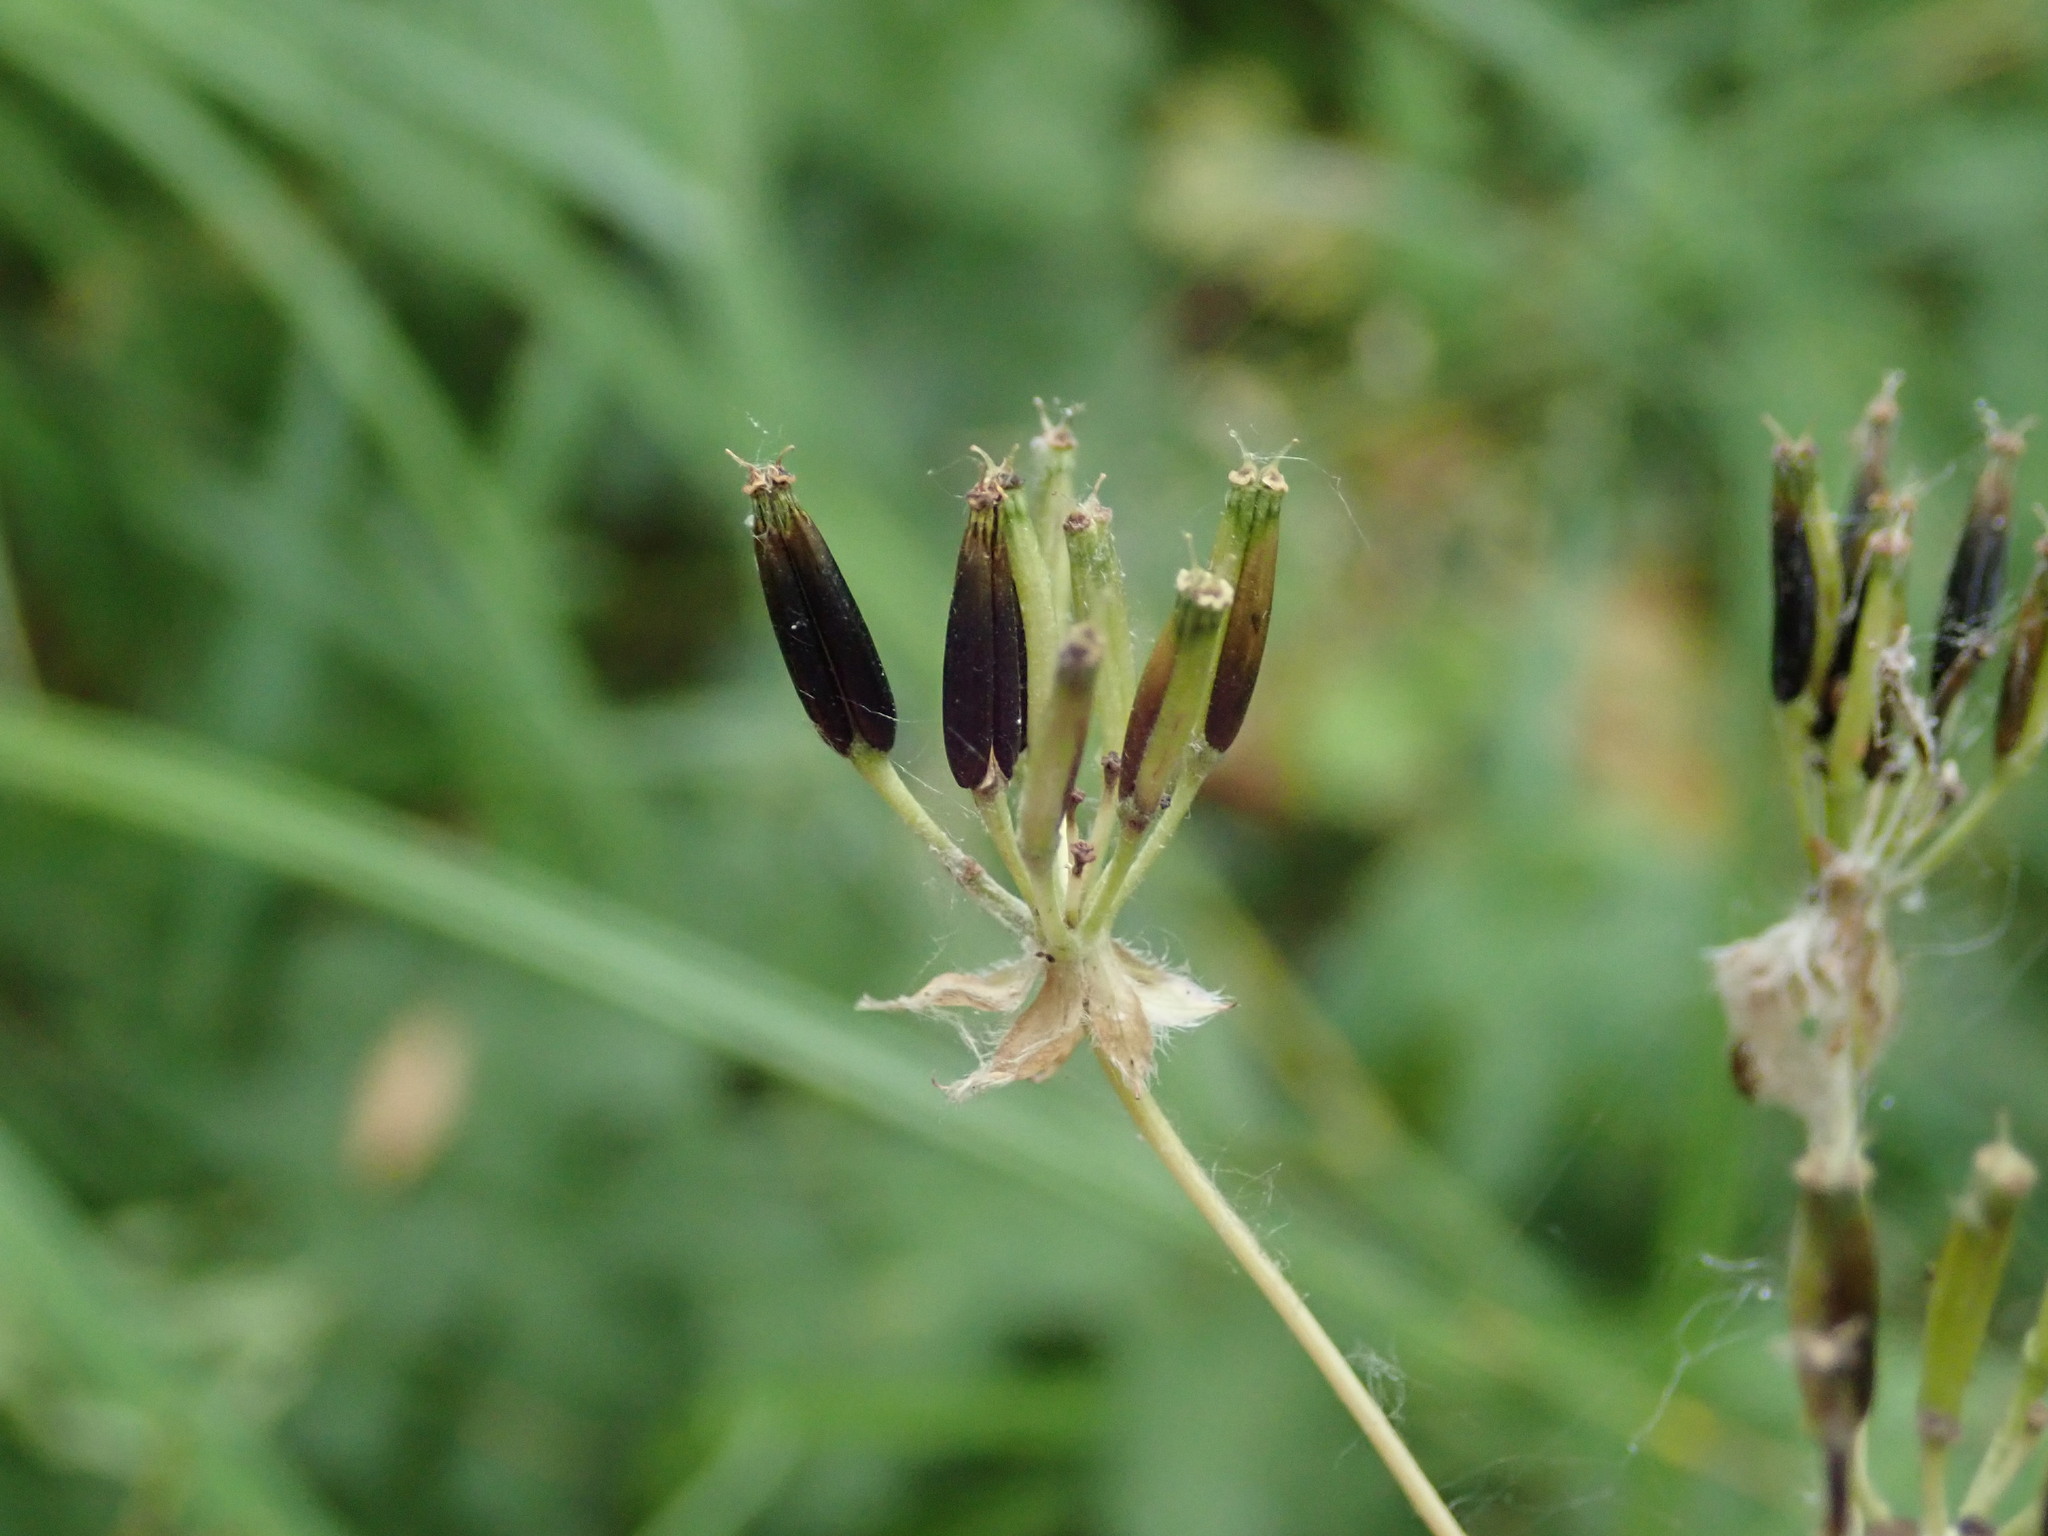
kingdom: Plantae
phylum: Tracheophyta
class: Magnoliopsida
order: Apiales
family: Apiaceae
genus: Anthriscus
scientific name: Anthriscus sylvestris
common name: Cow parsley
